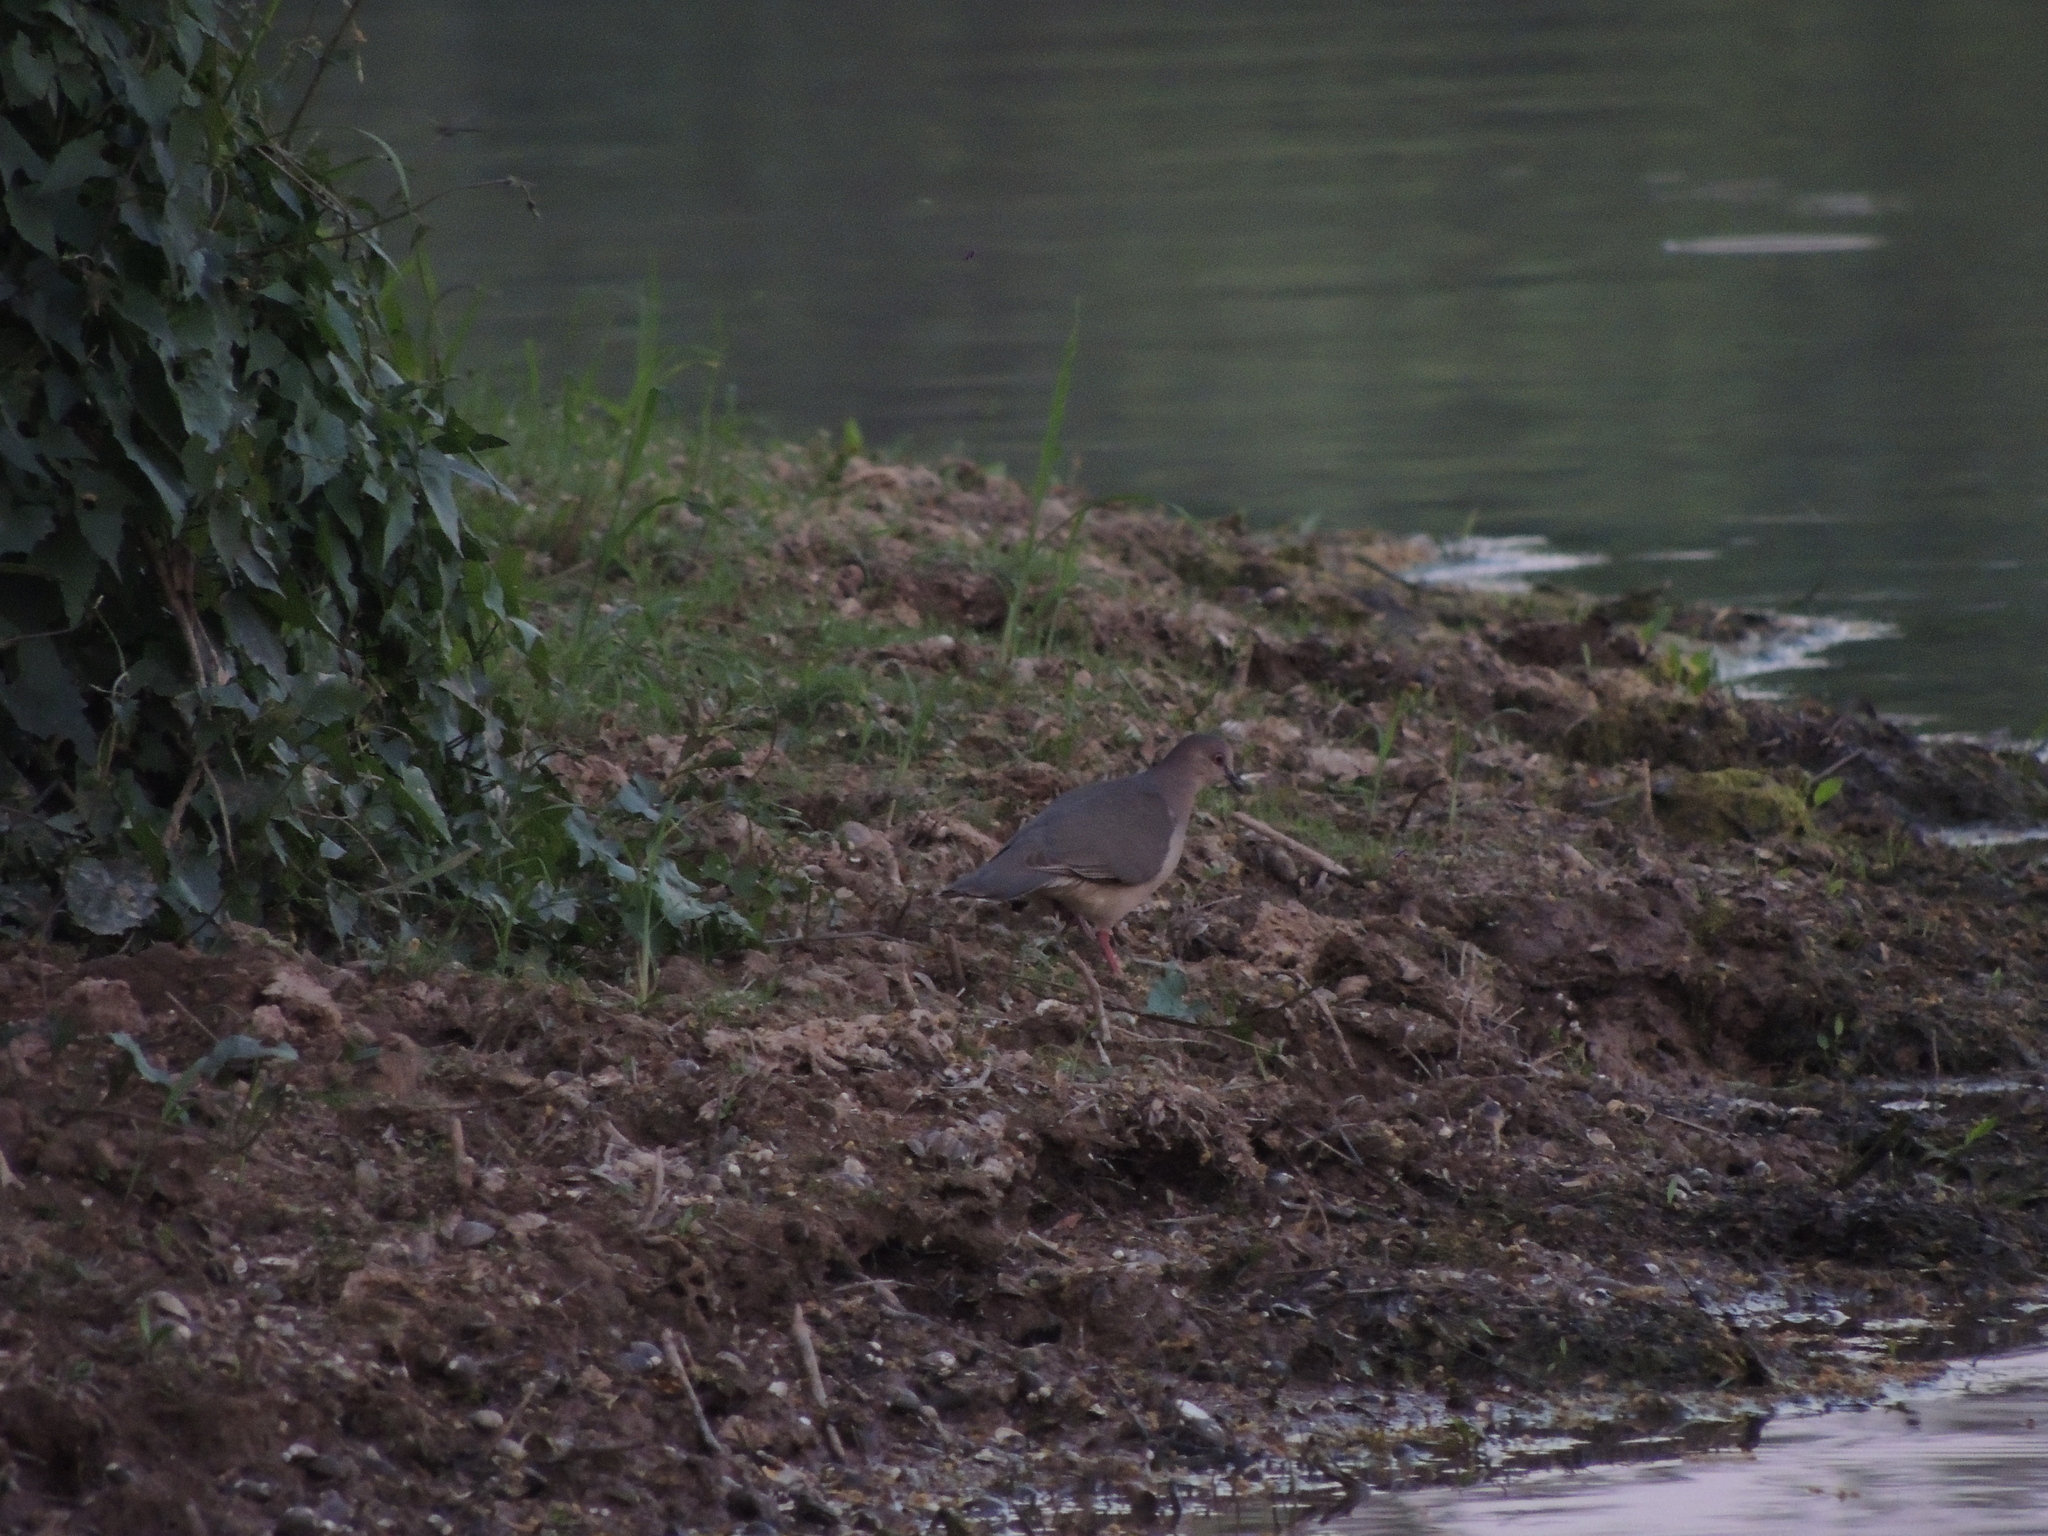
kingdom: Animalia
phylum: Chordata
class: Aves
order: Columbiformes
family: Columbidae
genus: Leptotila
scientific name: Leptotila verreauxi
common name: White-tipped dove
